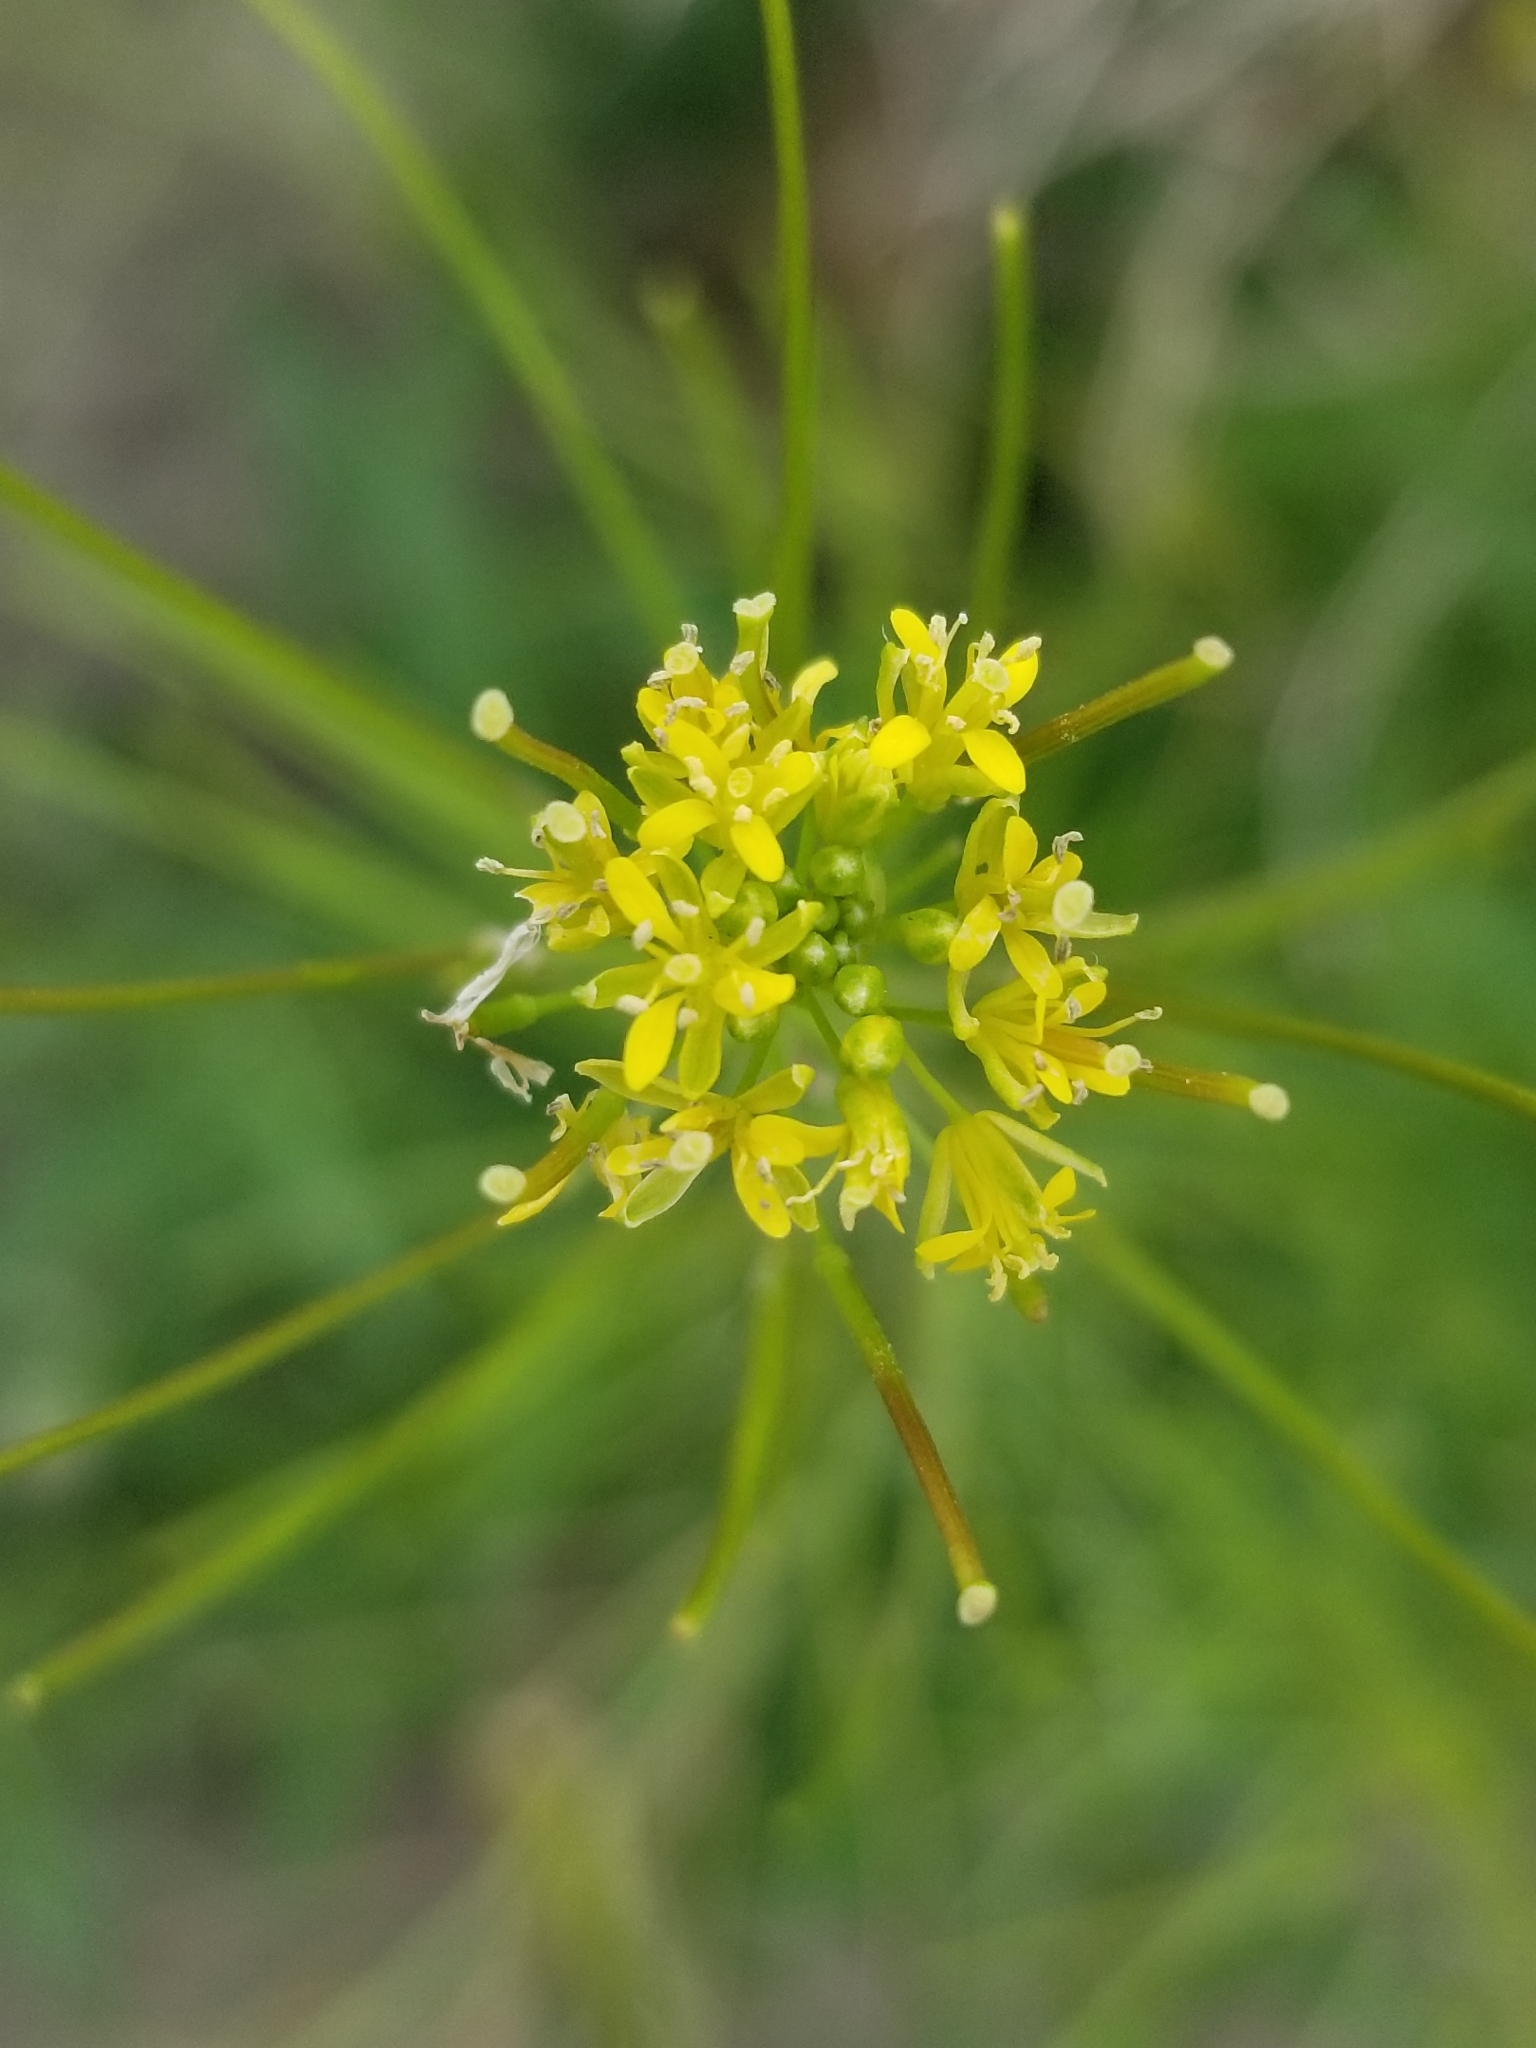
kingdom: Plantae
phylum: Tracheophyta
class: Magnoliopsida
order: Brassicales
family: Brassicaceae
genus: Sisymbrium
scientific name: Sisymbrium irio
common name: London rocket
